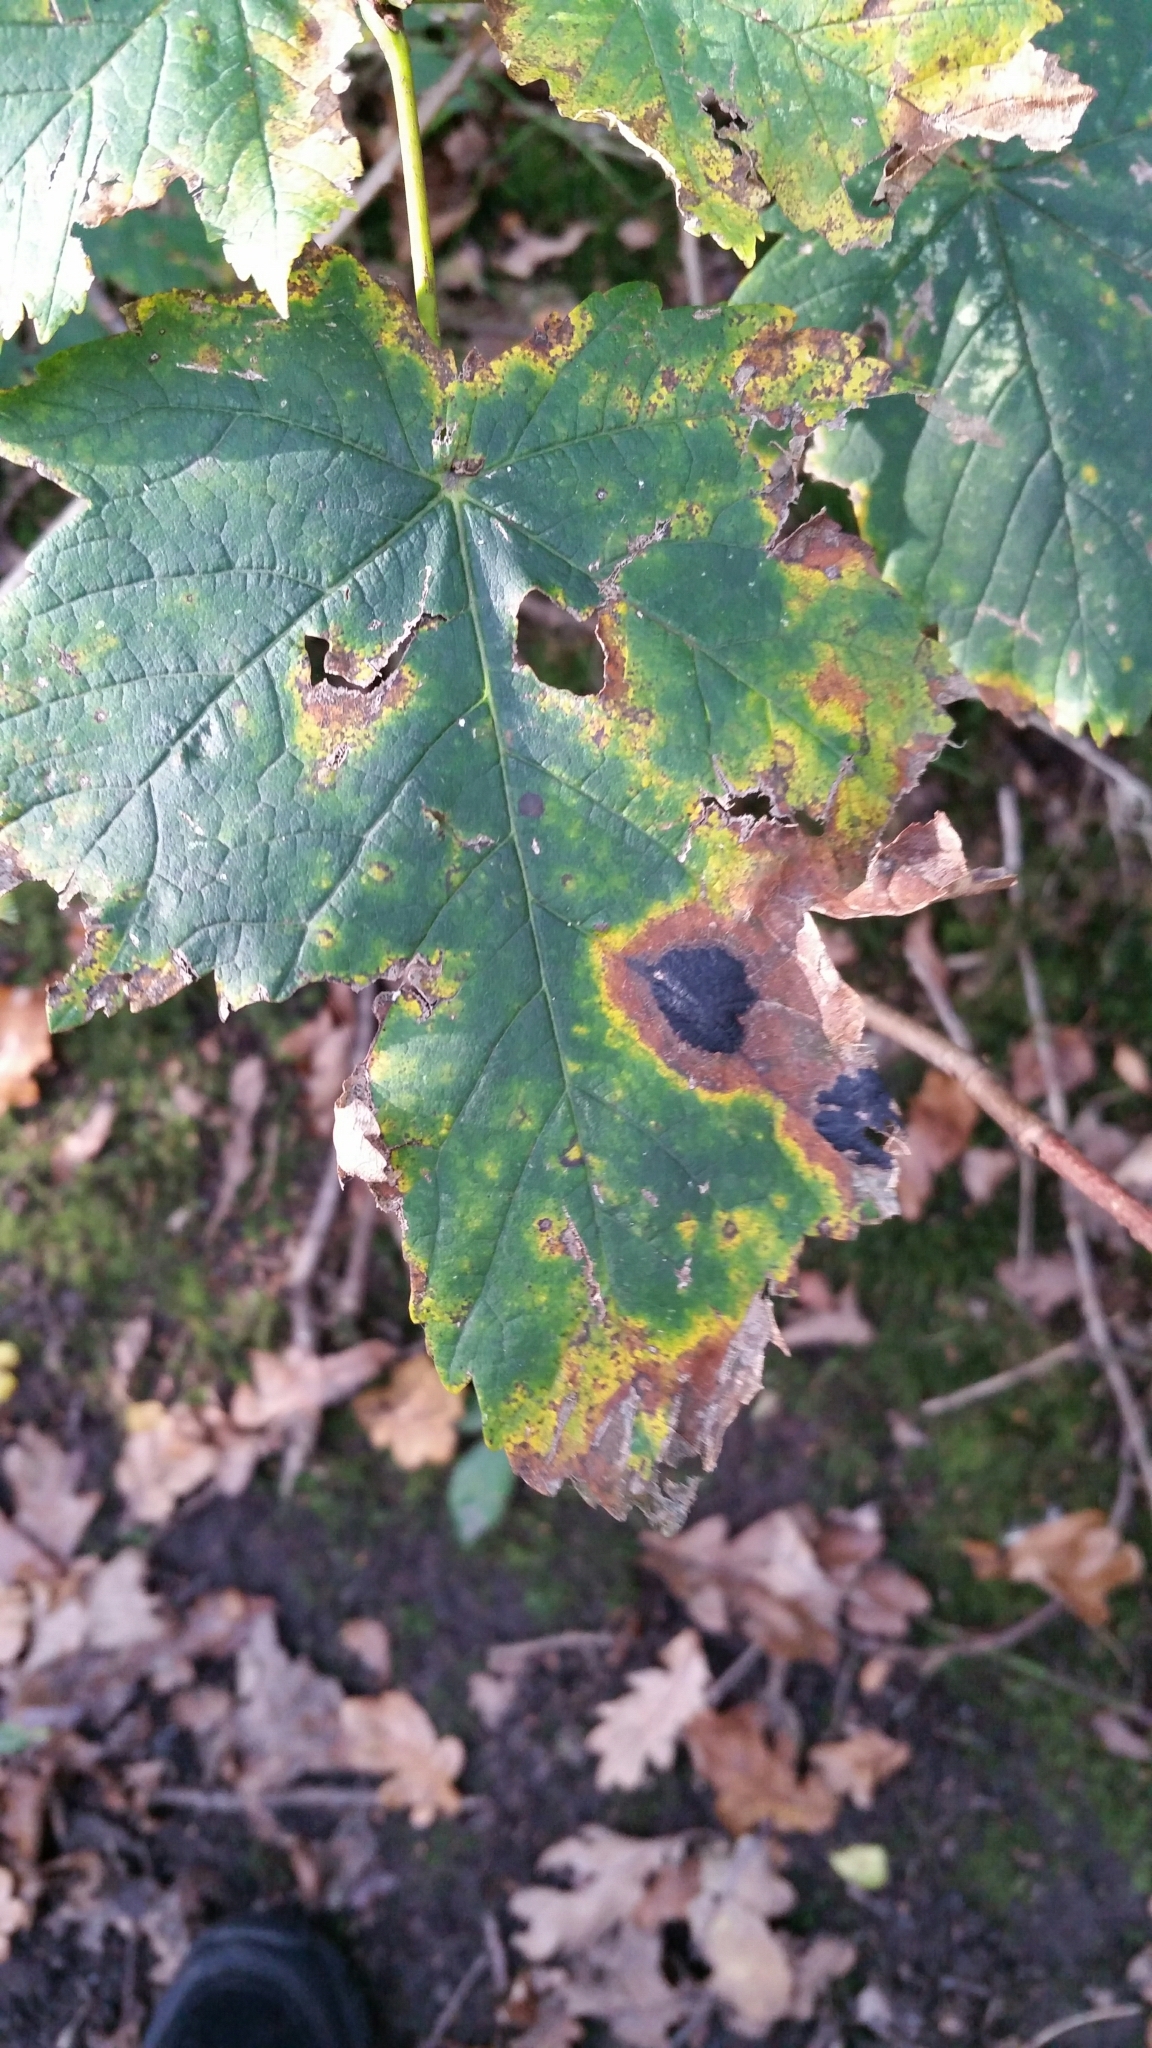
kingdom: Fungi
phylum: Ascomycota
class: Leotiomycetes
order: Rhytismatales
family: Rhytismataceae
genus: Rhytisma
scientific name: Rhytisma acerinum
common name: European tar spot
